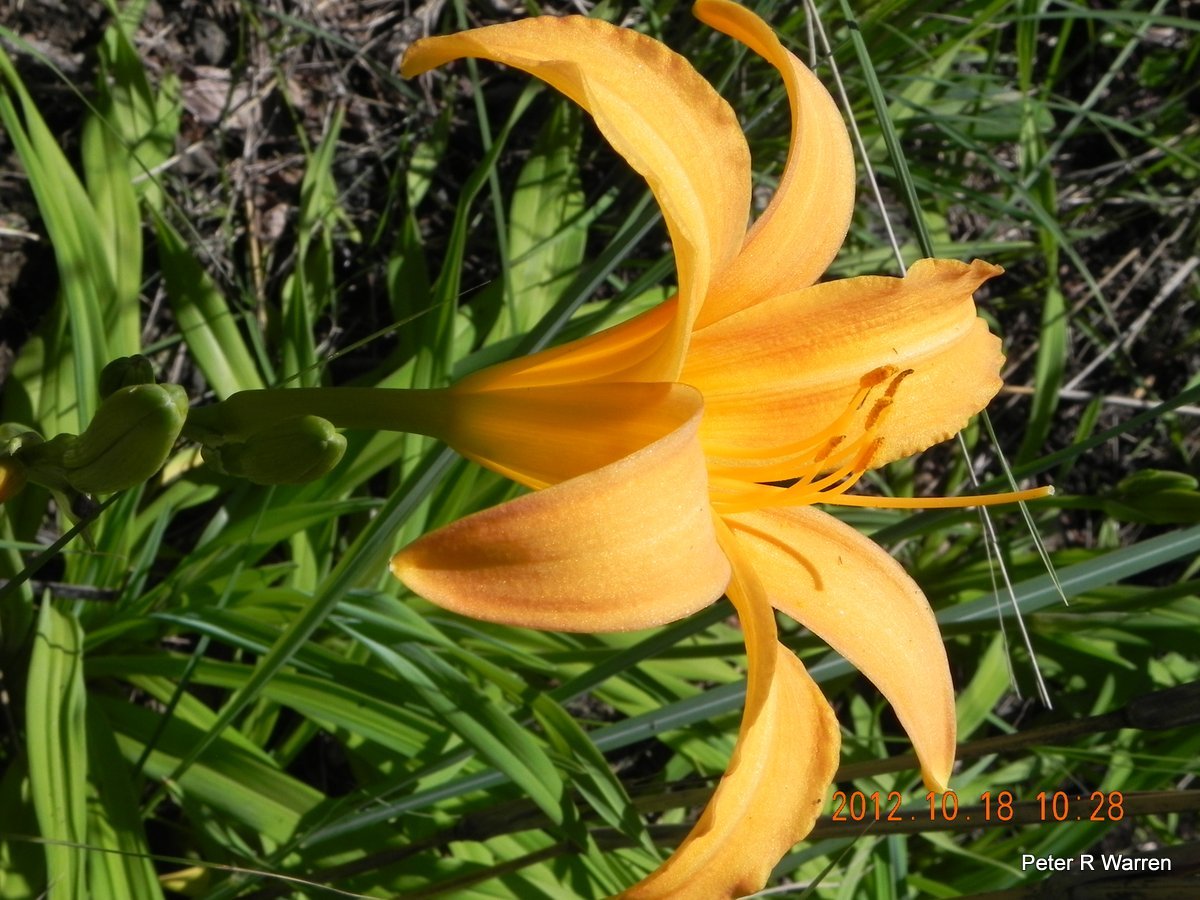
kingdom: Plantae
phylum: Tracheophyta
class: Liliopsida
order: Asparagales
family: Asphodelaceae
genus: Hemerocallis
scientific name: Hemerocallis lilioasphodelus
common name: Yellow day-lily
